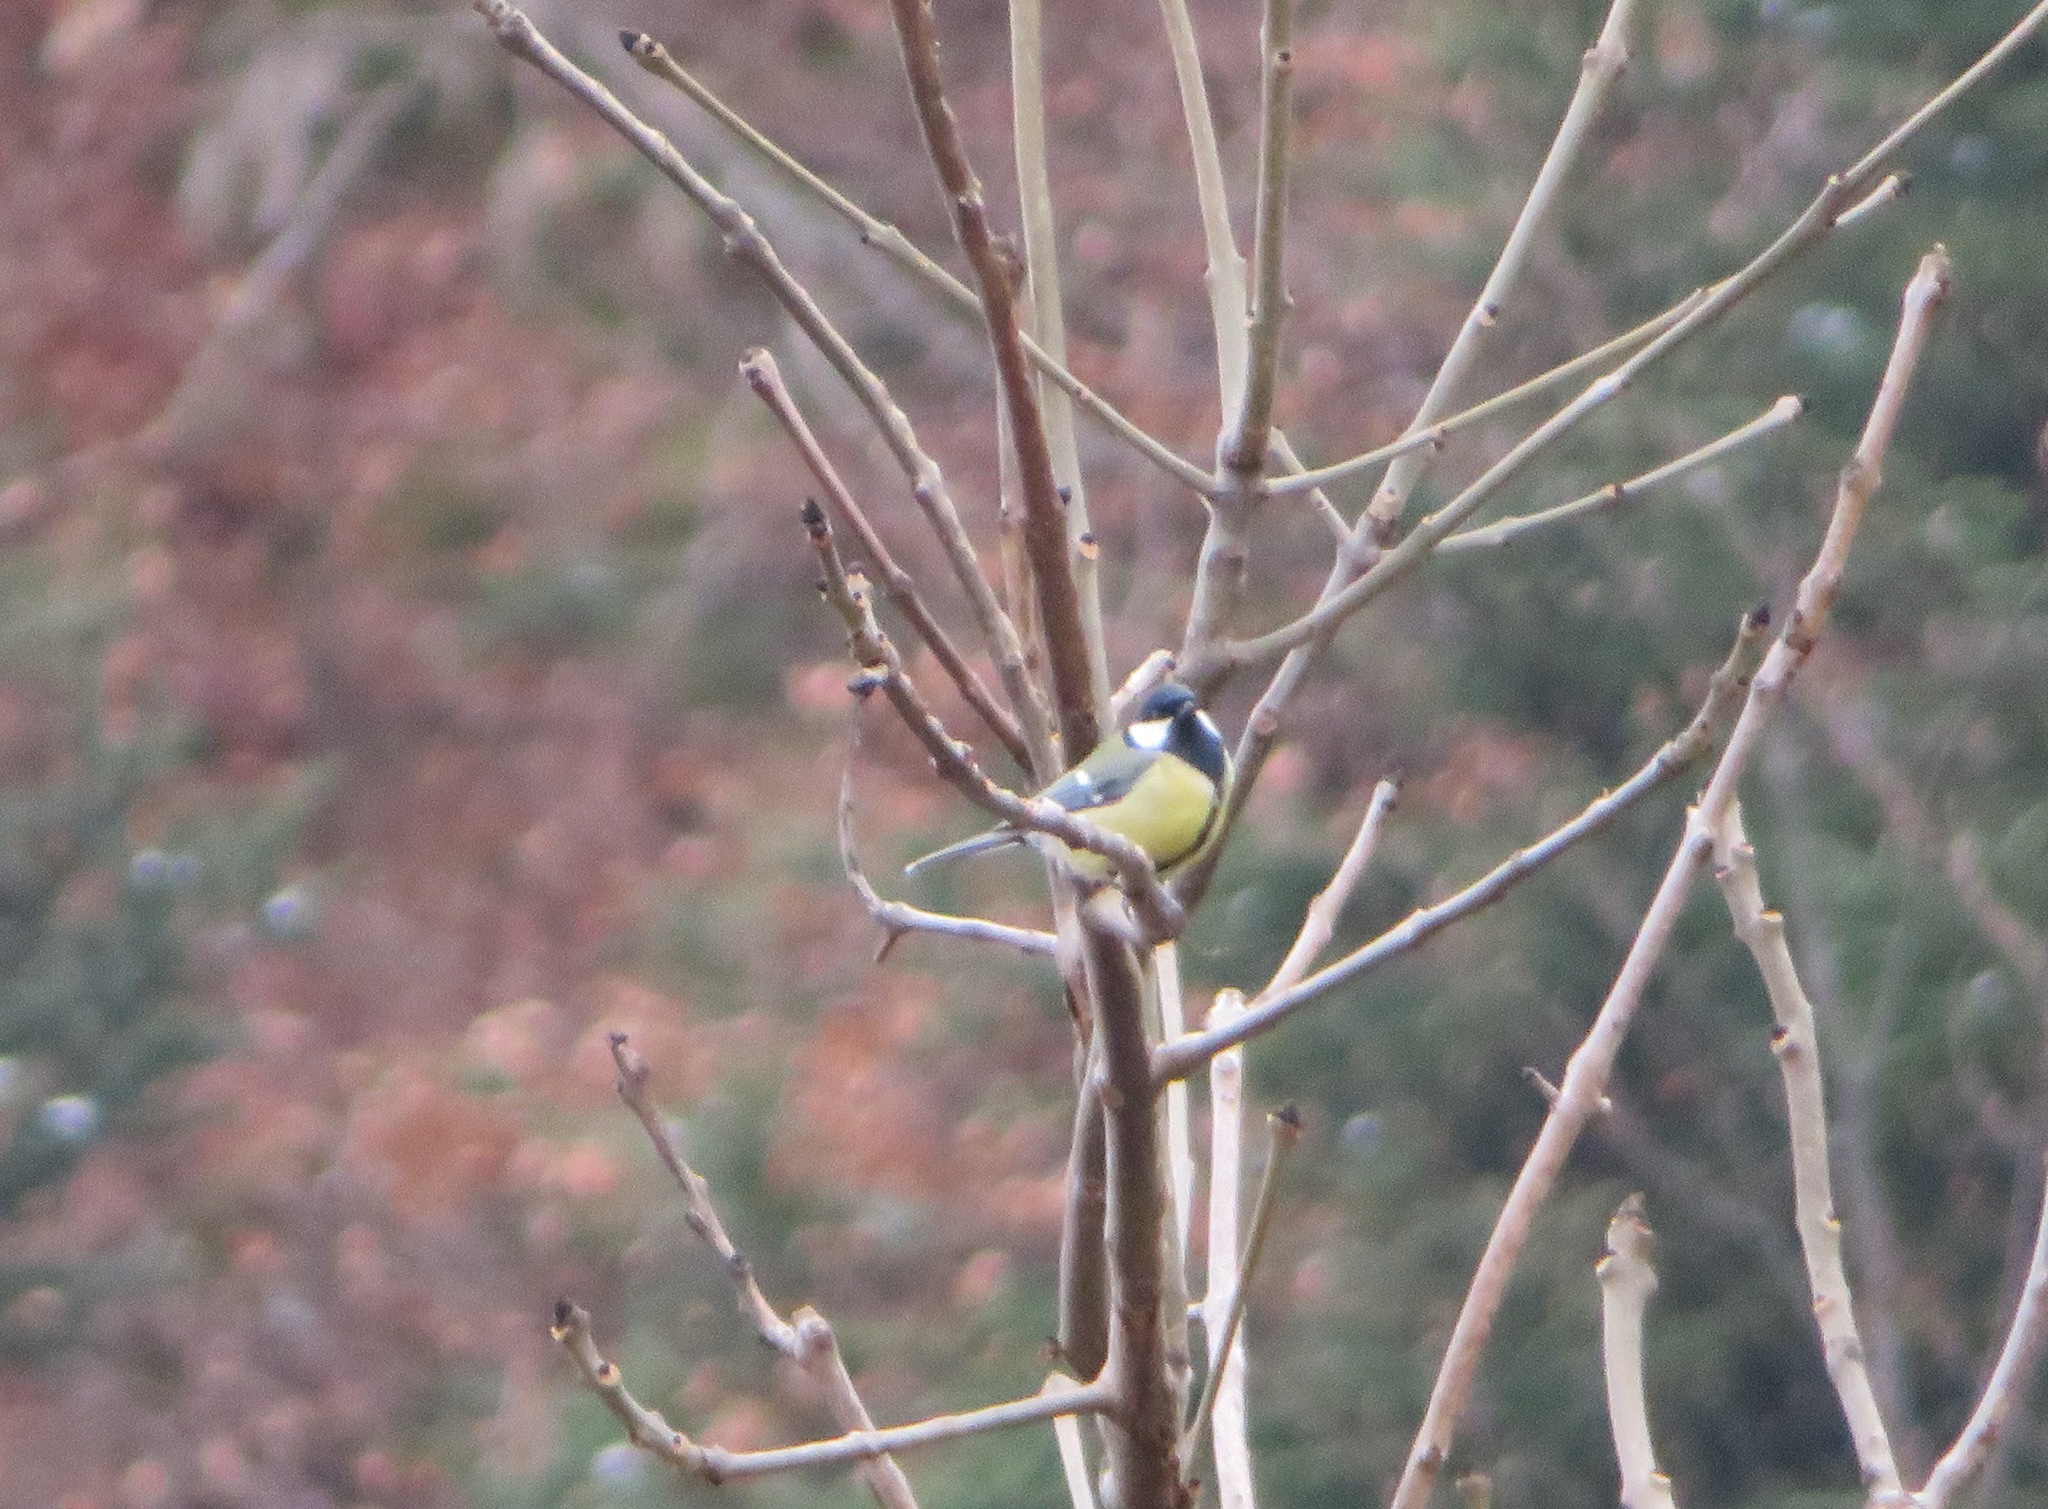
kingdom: Animalia
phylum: Chordata
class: Aves
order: Passeriformes
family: Paridae
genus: Parus
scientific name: Parus major
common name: Great tit
